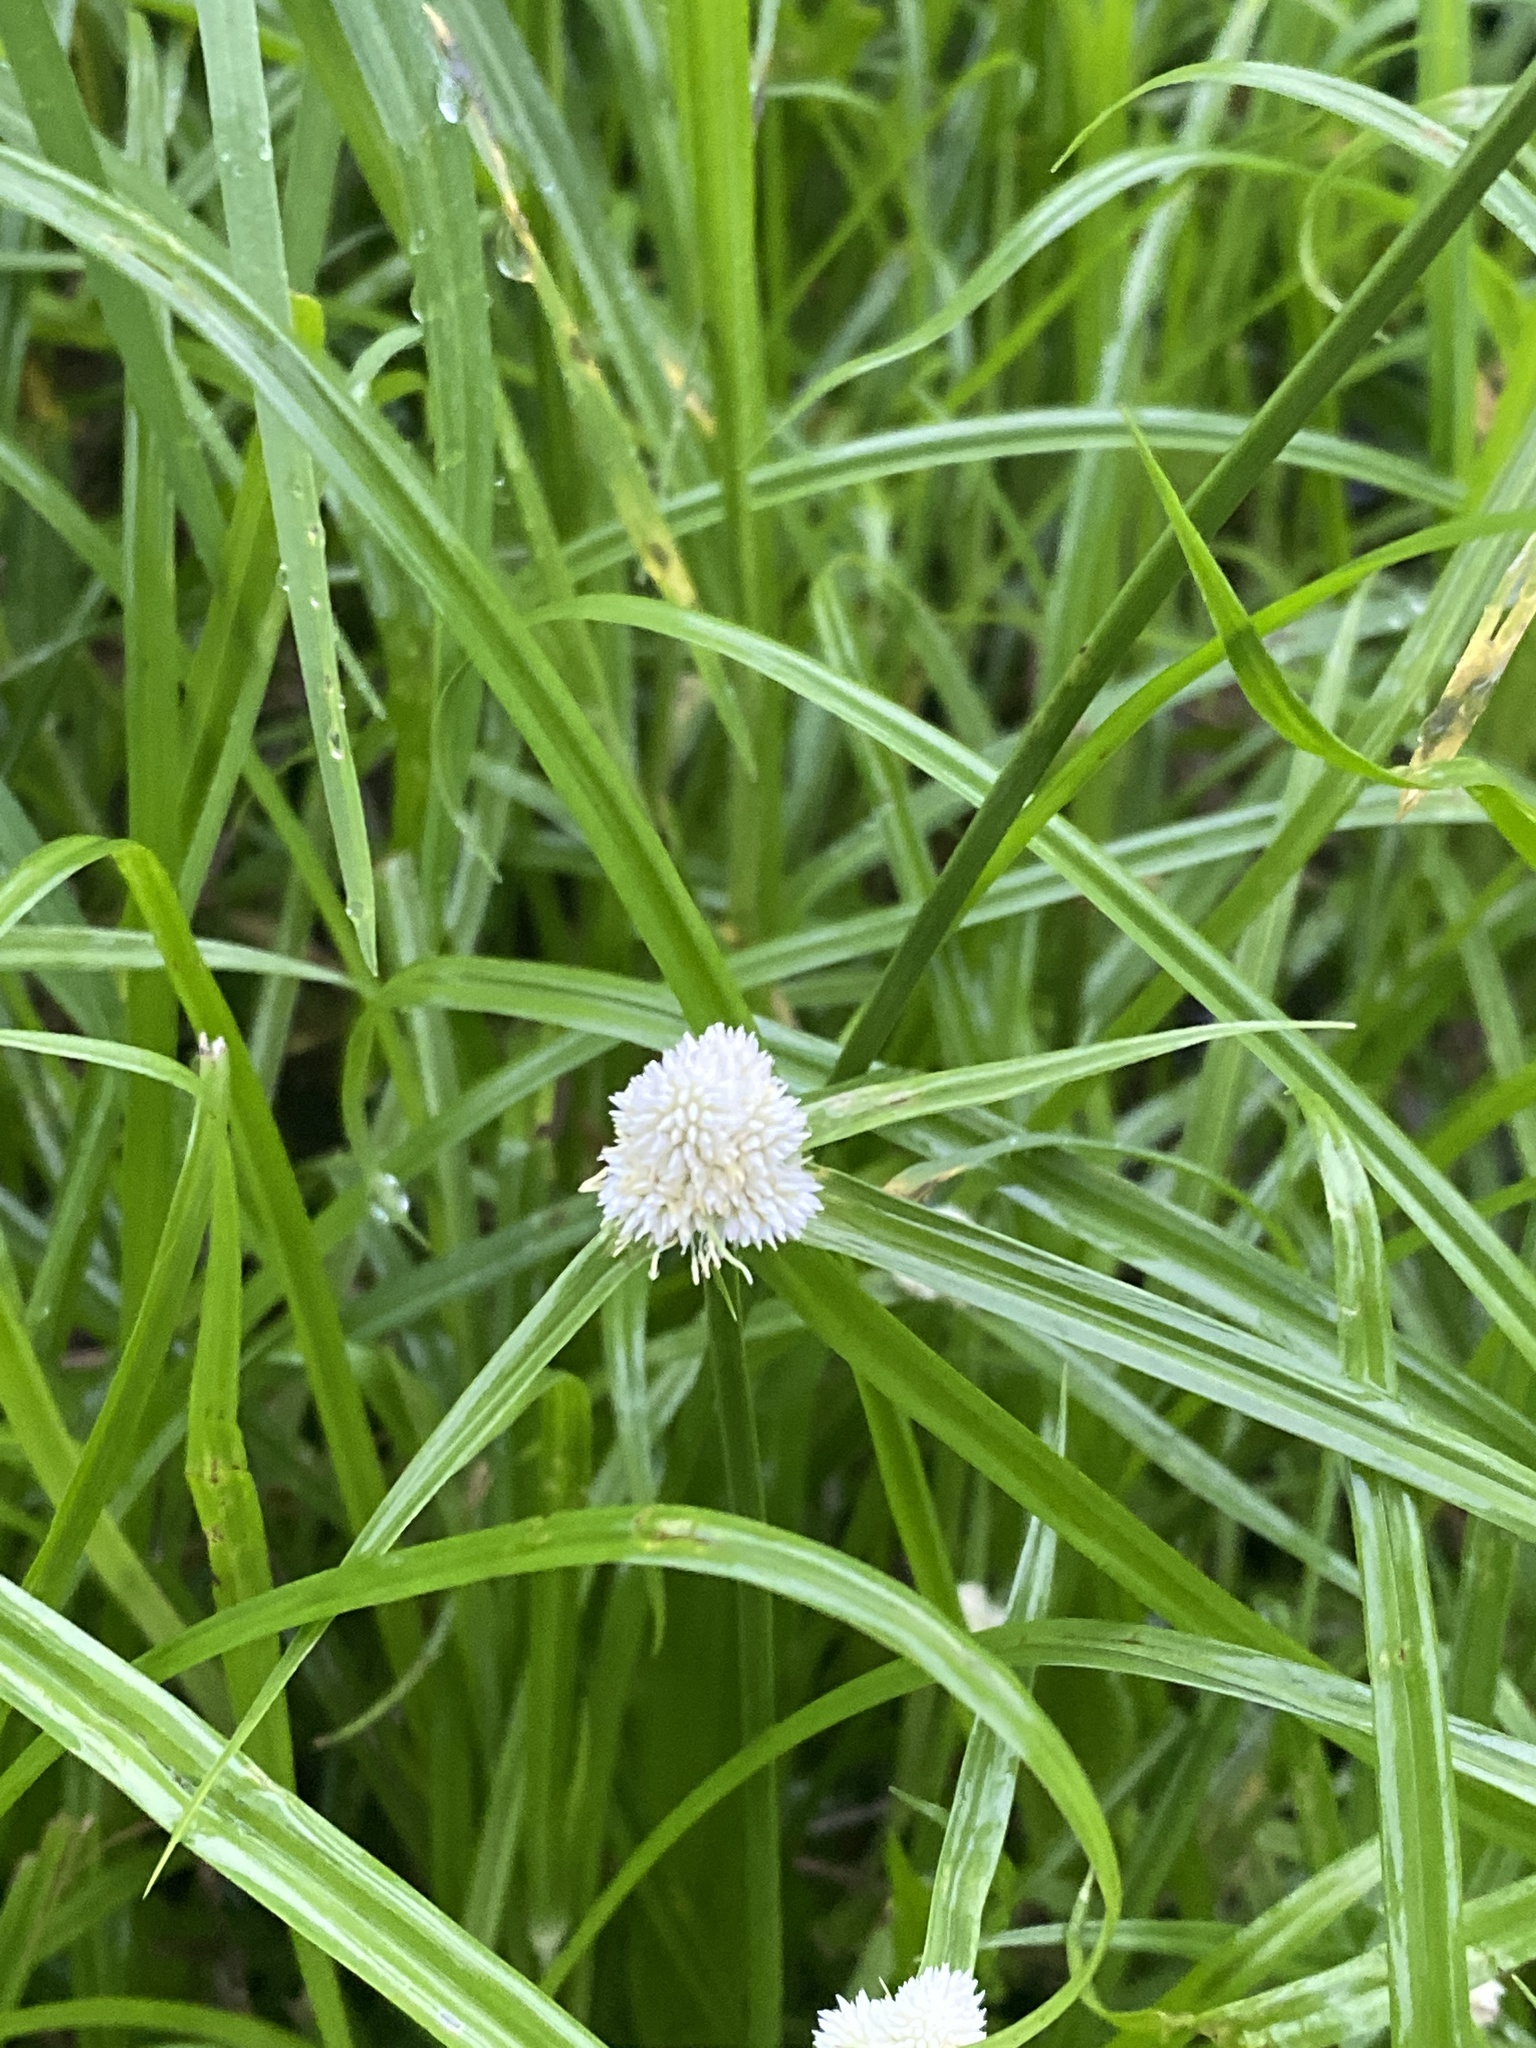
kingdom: Plantae
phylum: Tracheophyta
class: Liliopsida
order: Poales
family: Cyperaceae
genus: Cyperus
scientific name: Cyperus sesquiflorus
